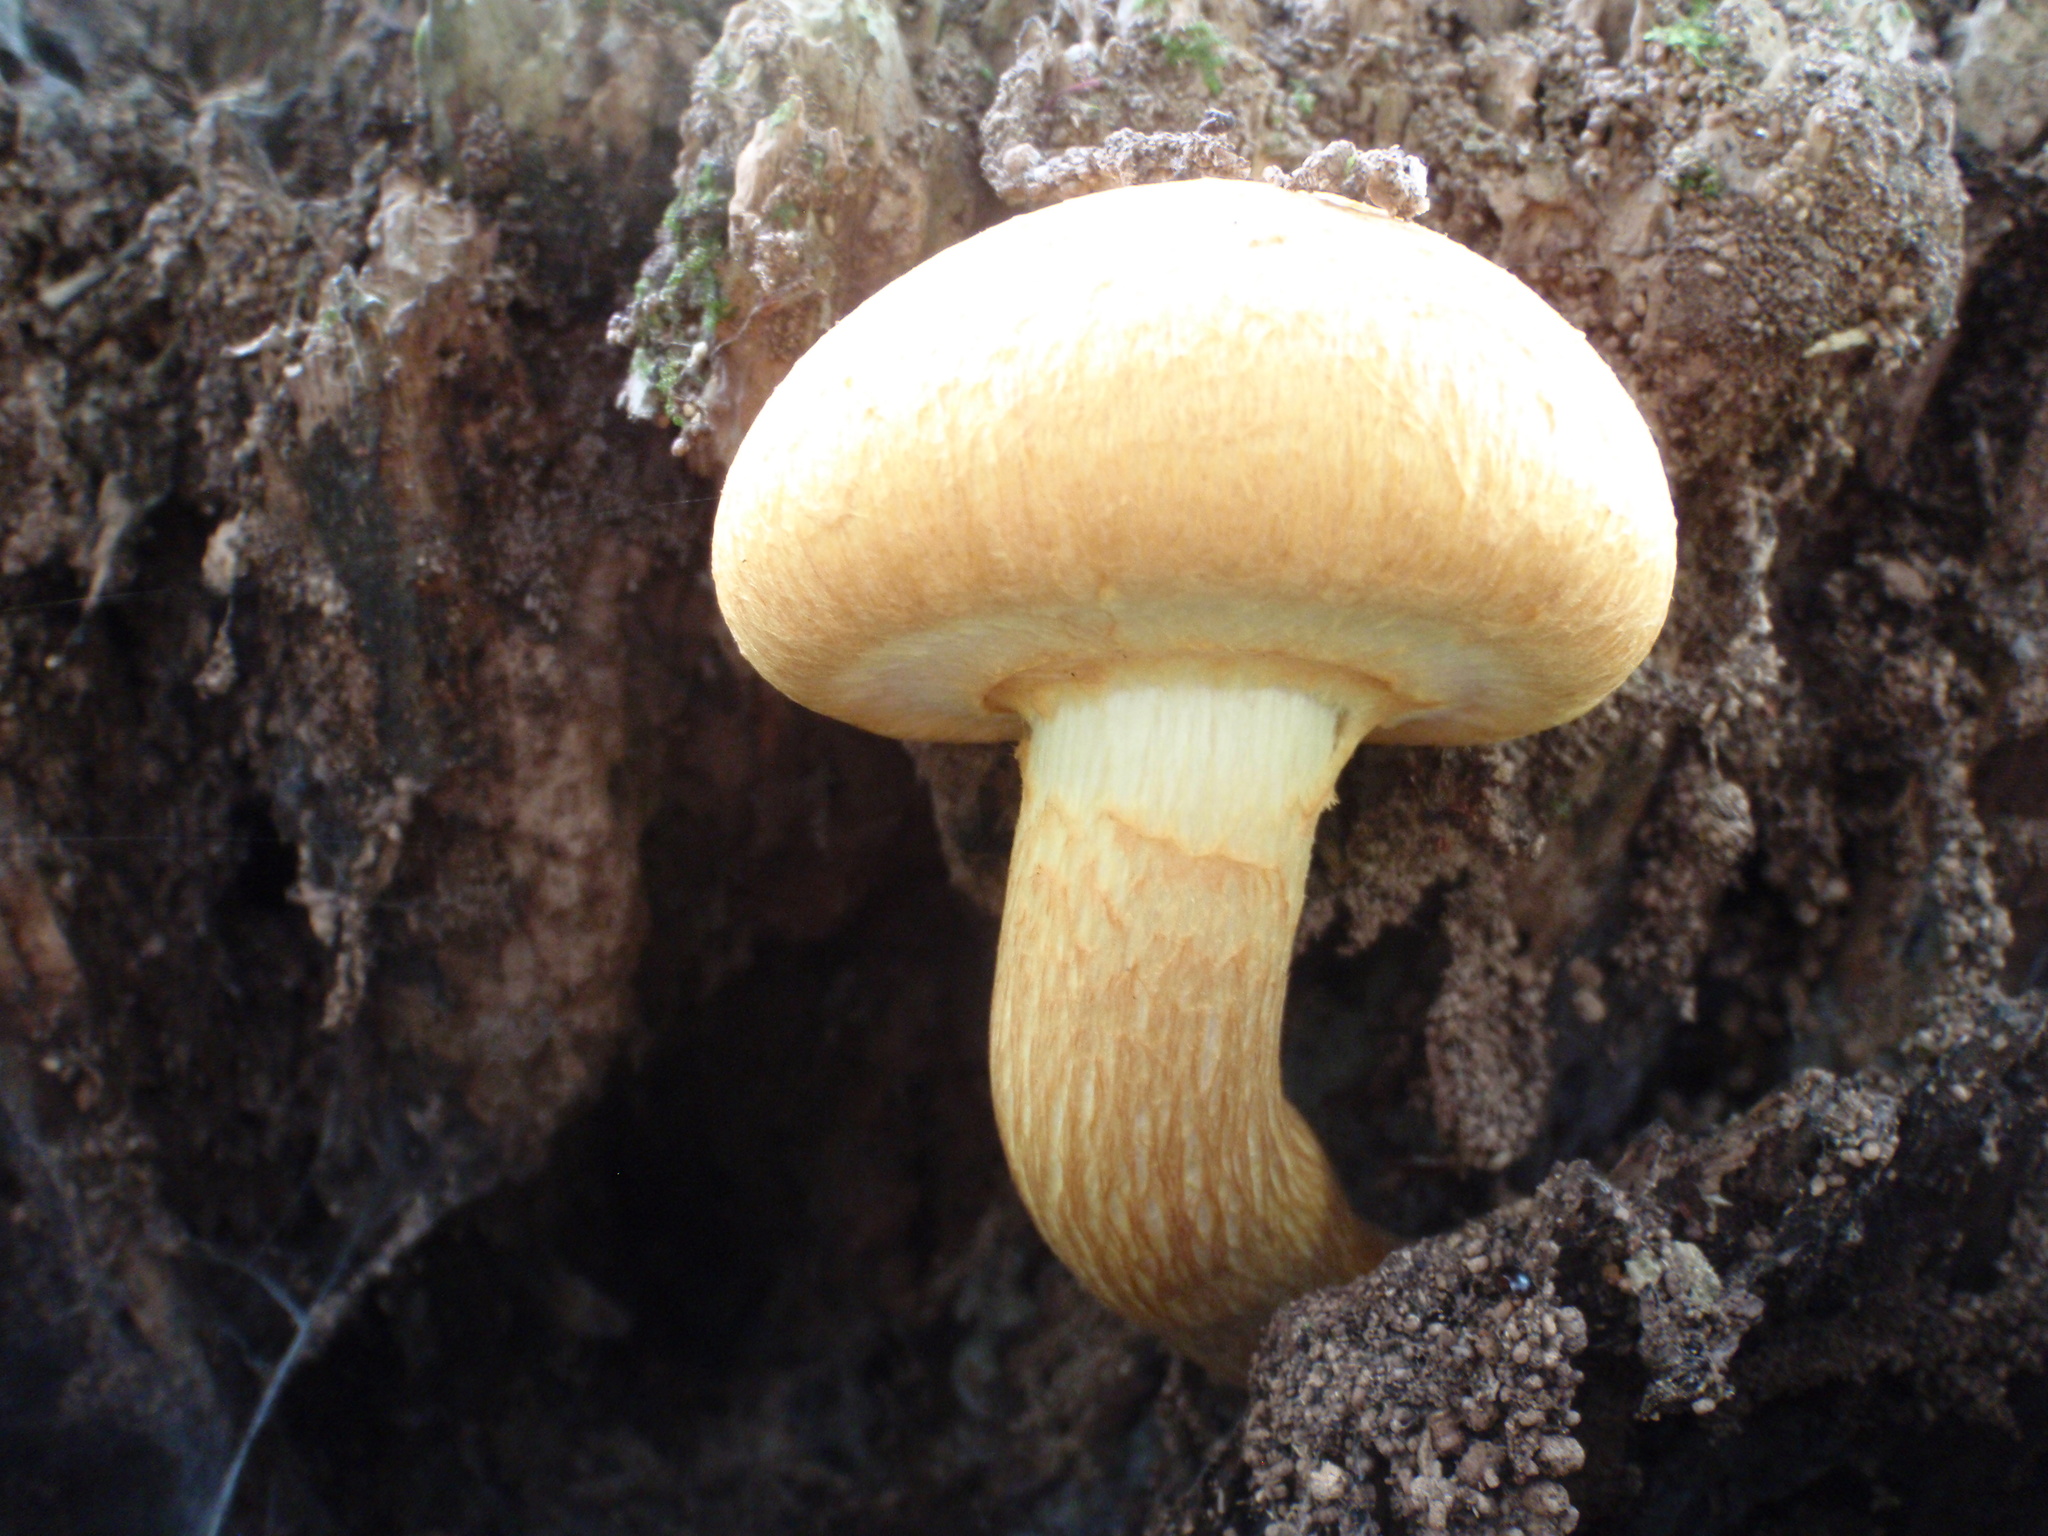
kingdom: Fungi
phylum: Basidiomycota
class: Agaricomycetes
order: Agaricales
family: Tubariaceae
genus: Cyclocybe
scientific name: Cyclocybe parasitica
